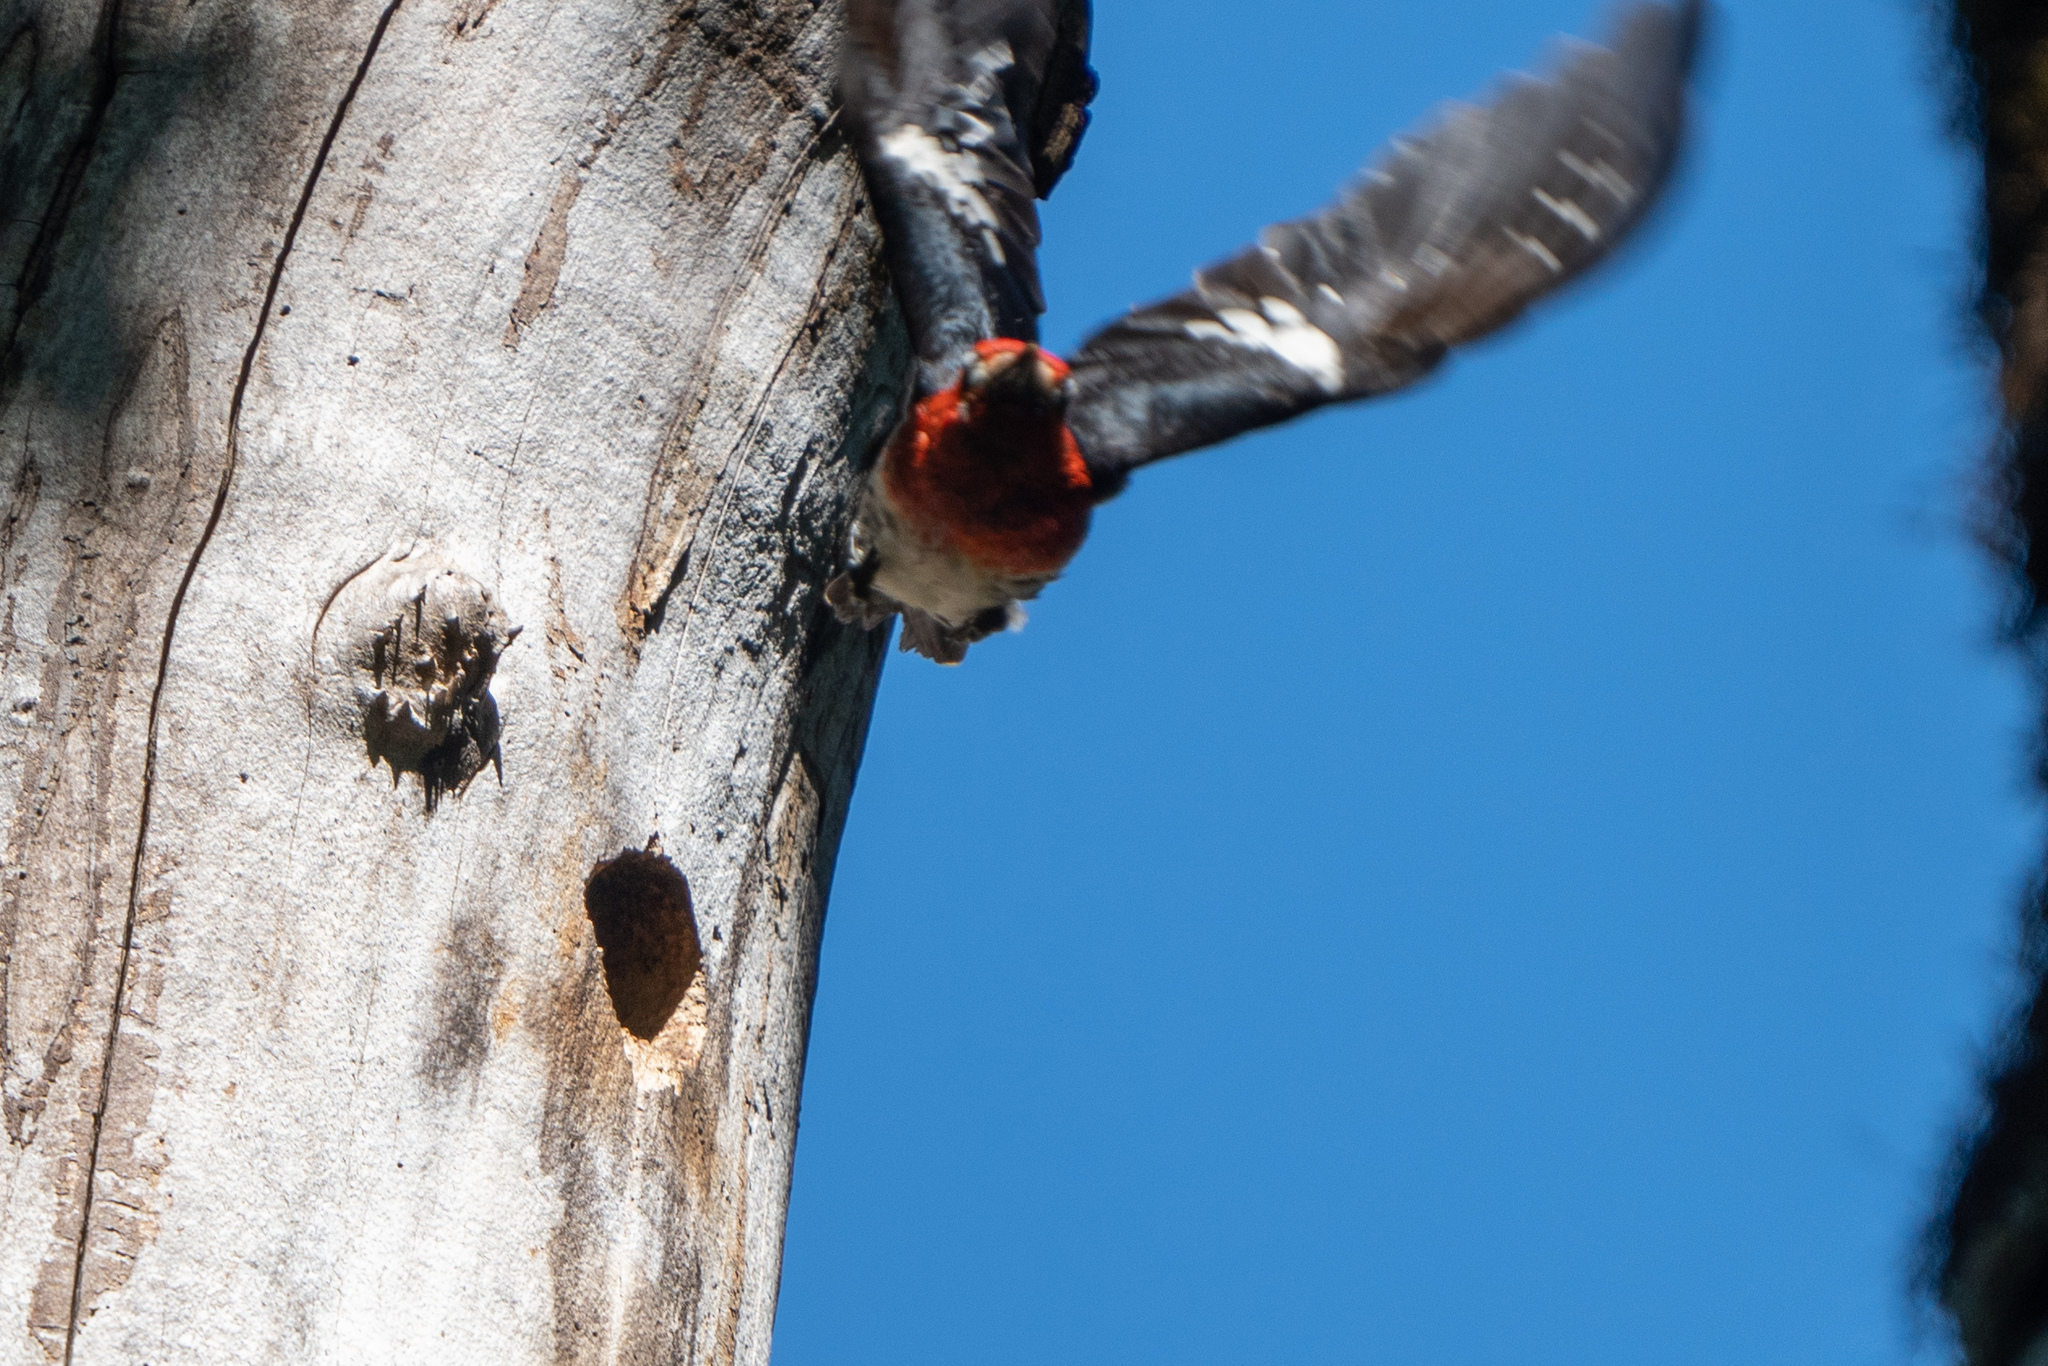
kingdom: Animalia
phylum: Chordata
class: Aves
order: Piciformes
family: Picidae
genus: Sphyrapicus
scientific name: Sphyrapicus ruber
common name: Red-breasted sapsucker
